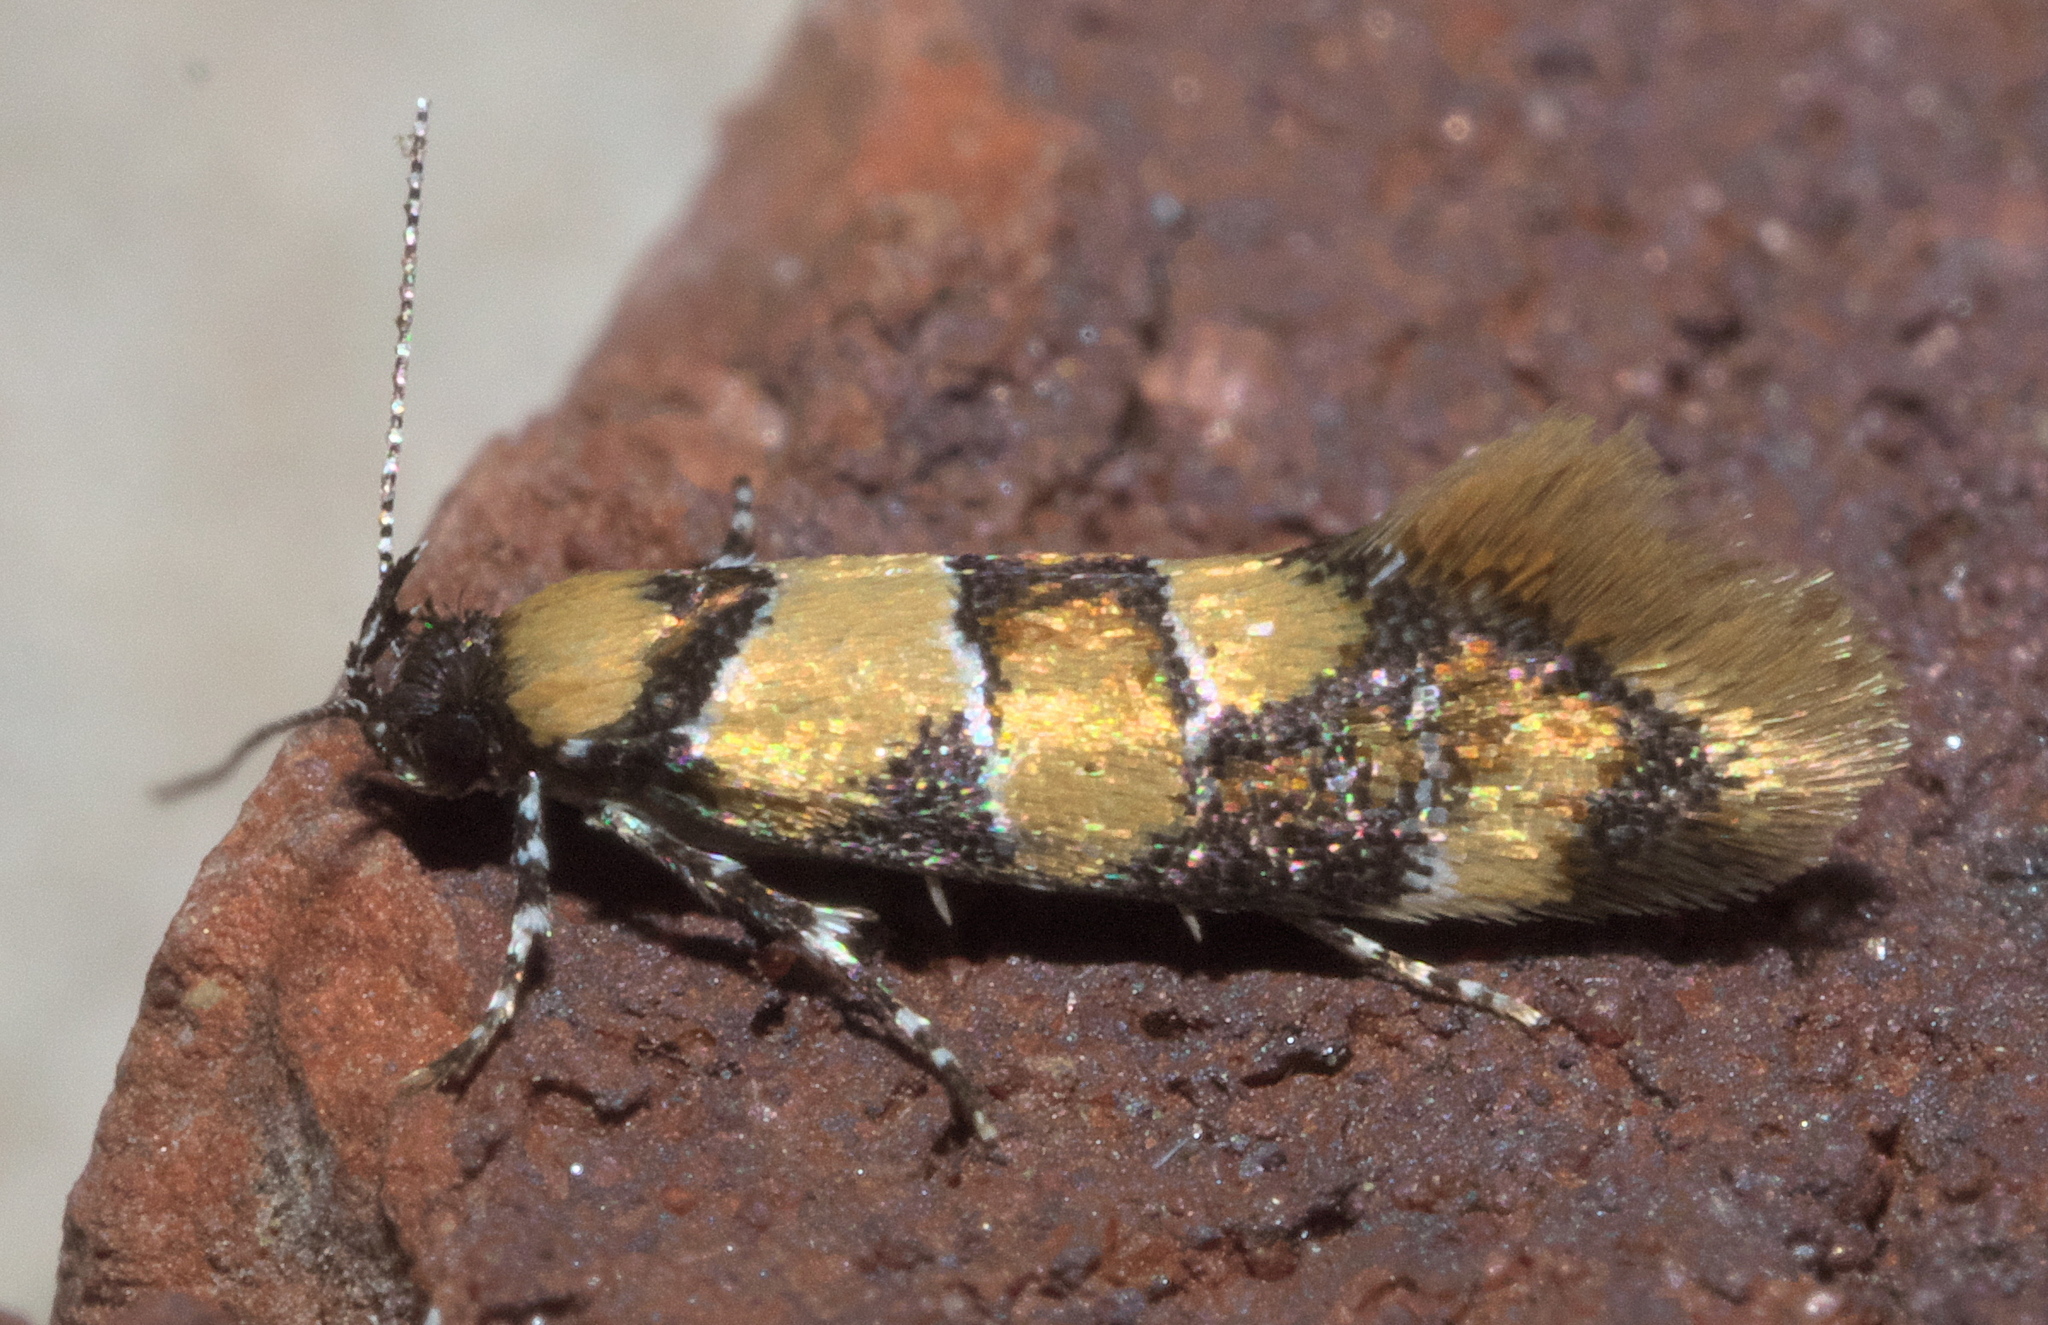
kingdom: Animalia
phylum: Arthropoda
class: Insecta
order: Lepidoptera
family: Oecophoridae
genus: Decantha
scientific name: Decantha borkhausenii
